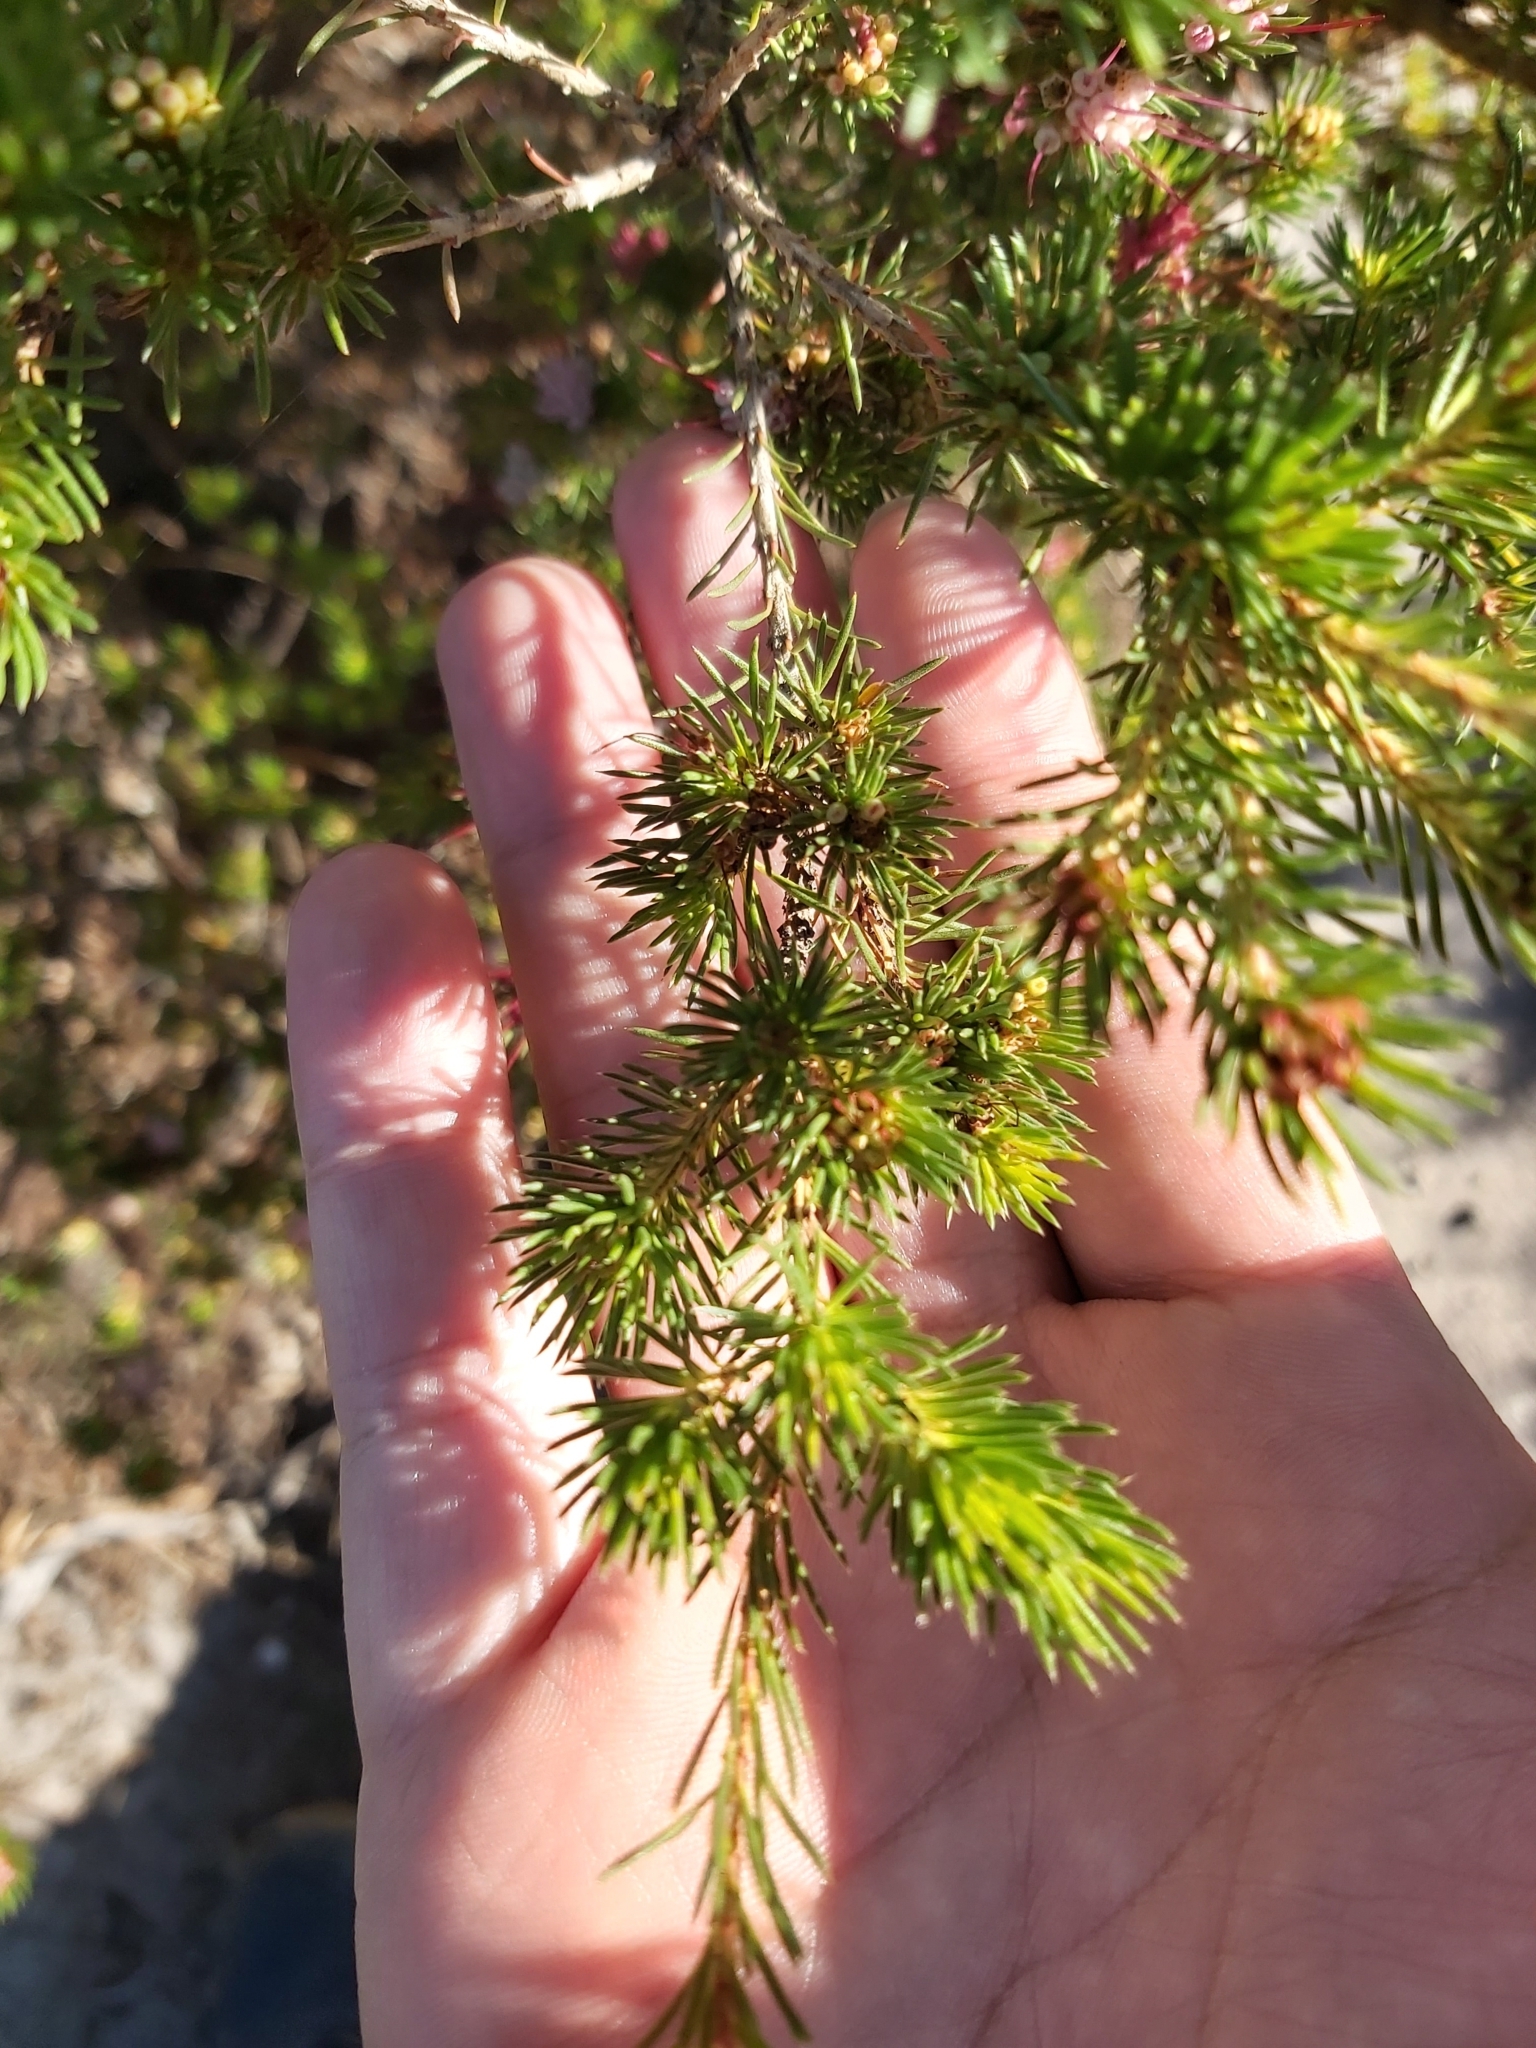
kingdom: Plantae
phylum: Tracheophyta
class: Magnoliopsida
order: Myrtales
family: Myrtaceae
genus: Darwinia
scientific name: Darwinia fascicularis
